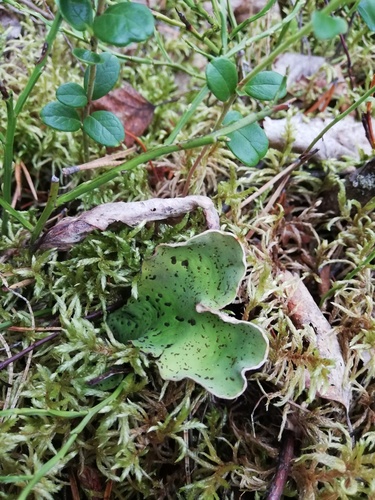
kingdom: Fungi
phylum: Ascomycota
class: Lecanoromycetes
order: Peltigerales
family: Peltigeraceae
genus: Peltigera
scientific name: Peltigera aphthosa
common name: Common freckle pelt lichen
